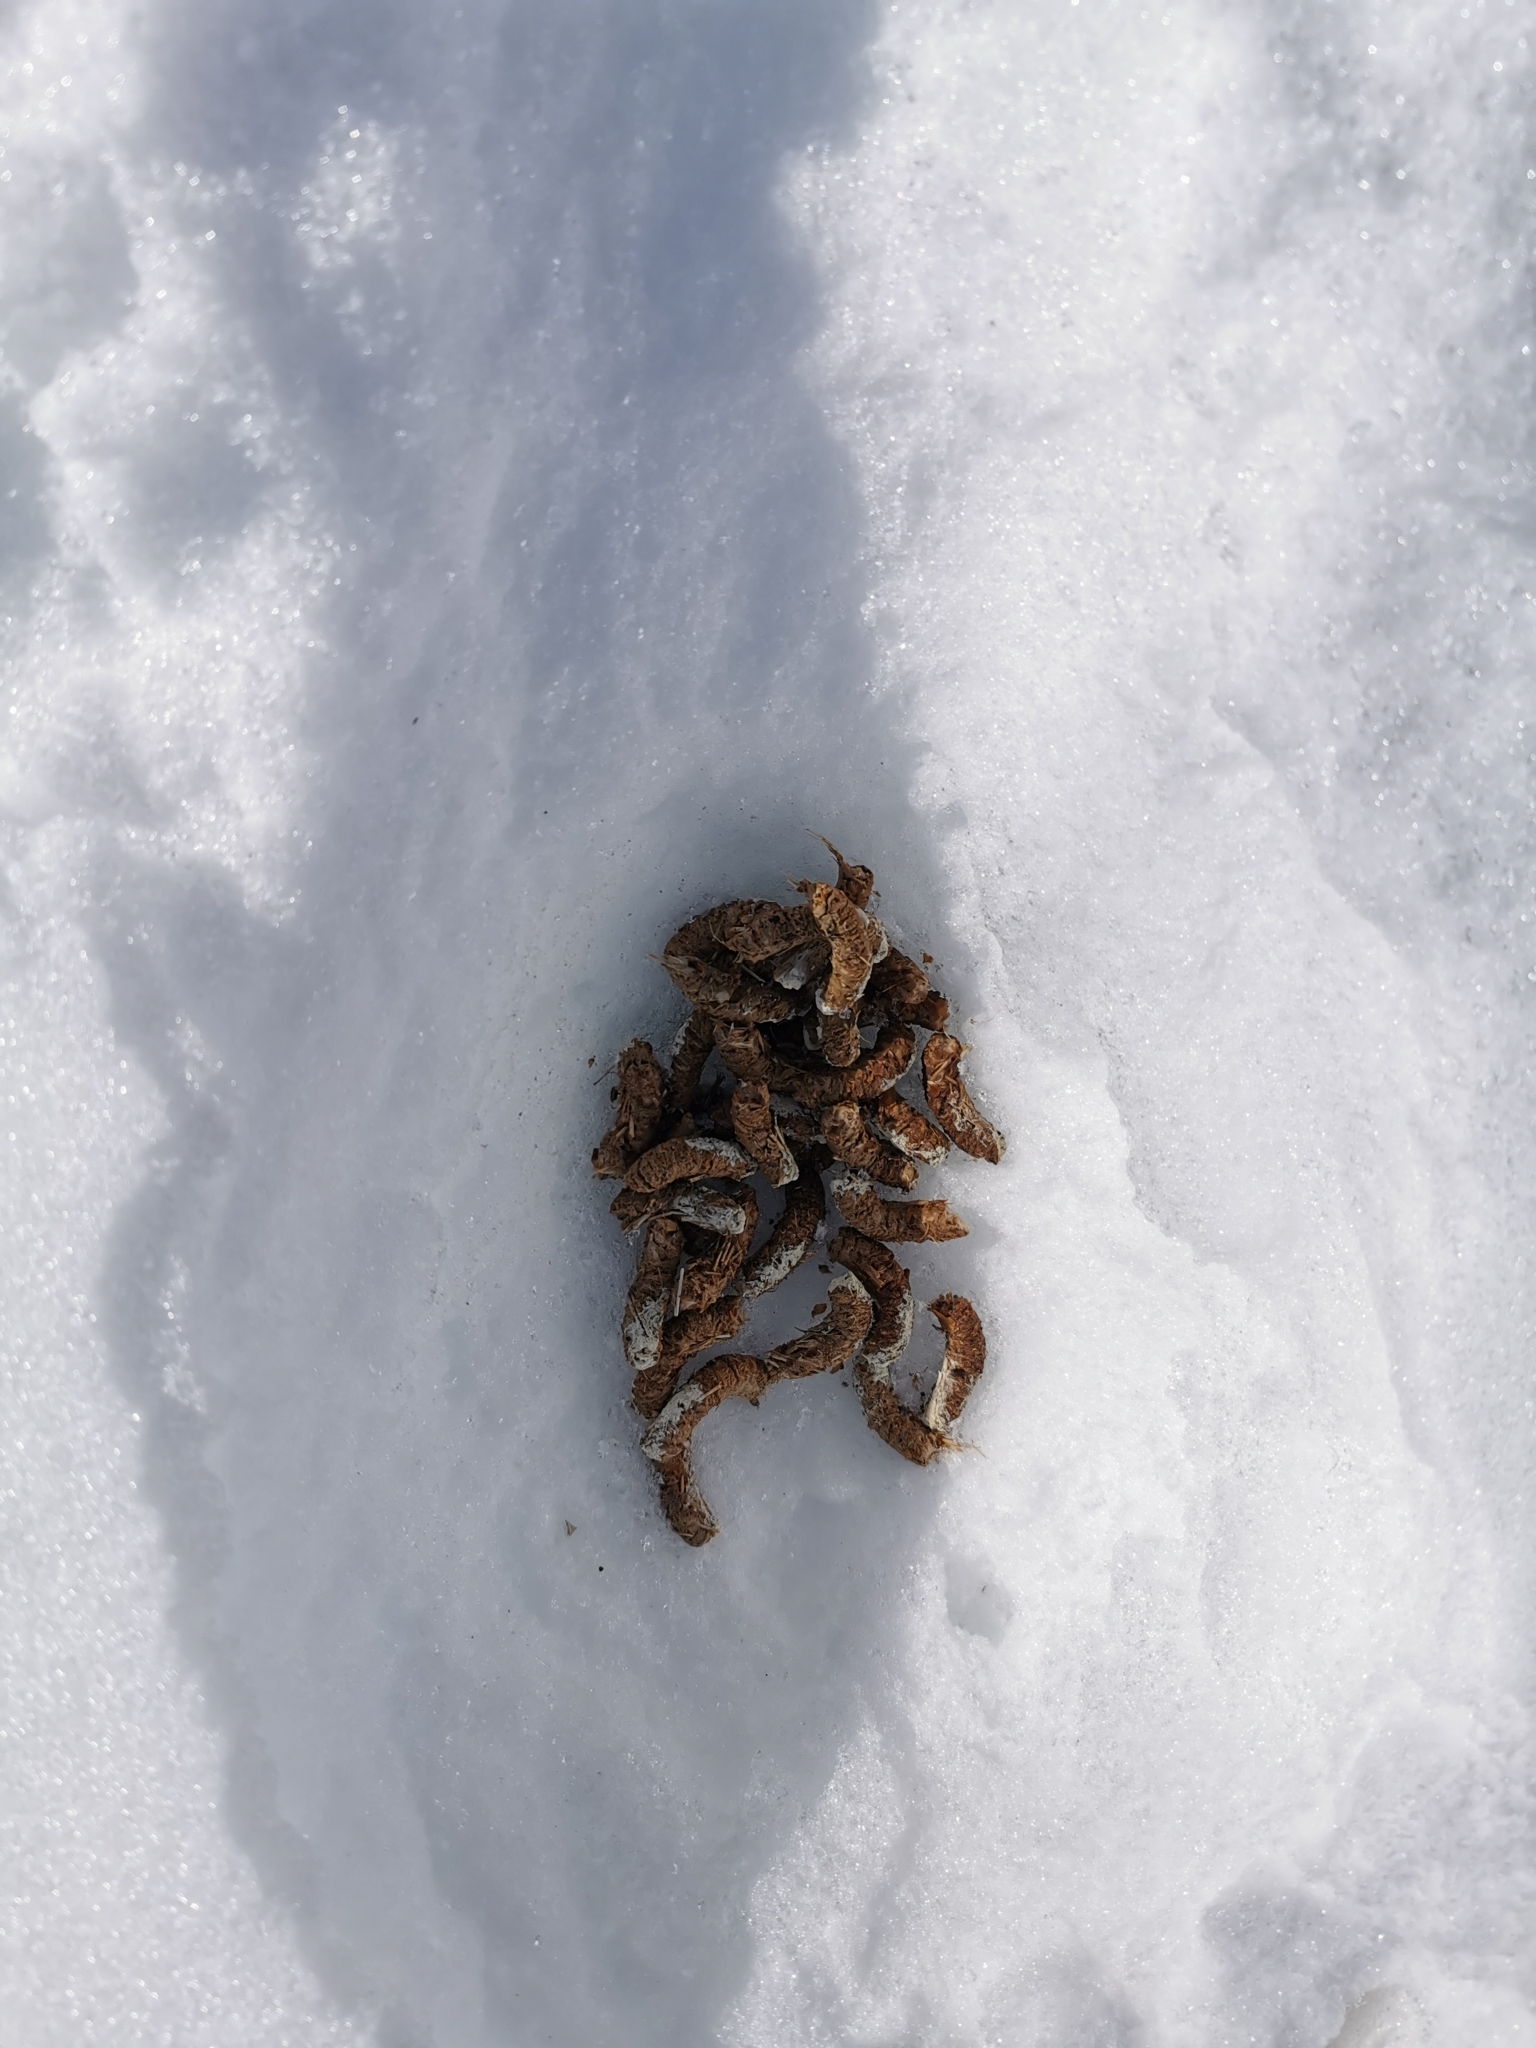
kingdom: Animalia
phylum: Chordata
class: Aves
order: Galliformes
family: Phasianidae
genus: Lagopus
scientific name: Lagopus lagopus
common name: Willow ptarmigan
